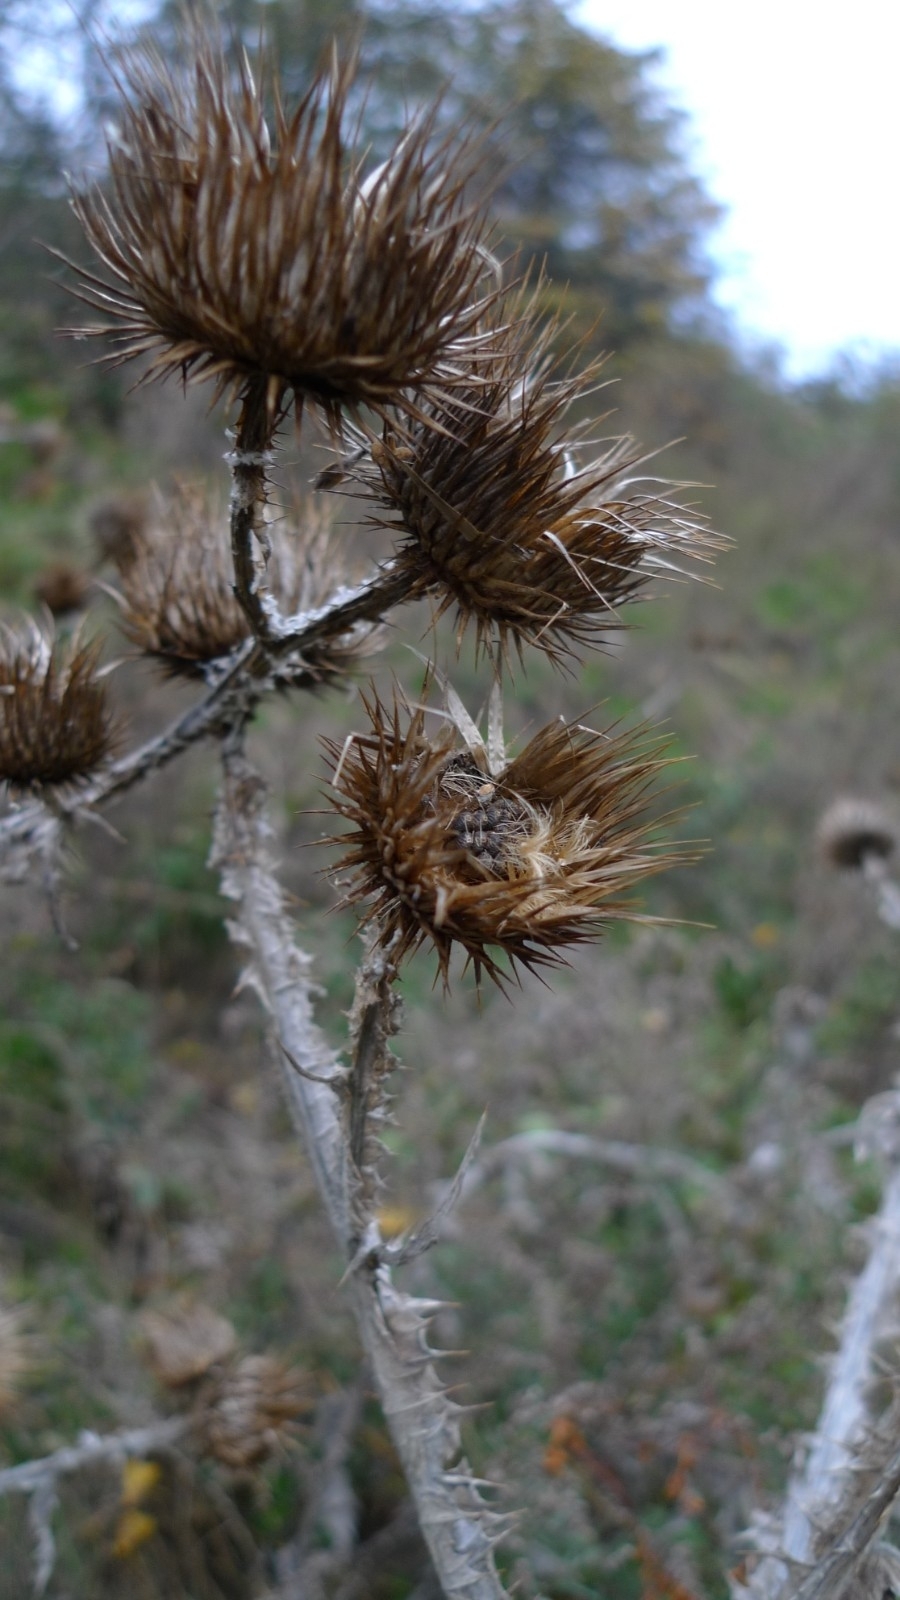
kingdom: Plantae
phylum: Tracheophyta
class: Magnoliopsida
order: Asterales
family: Asteraceae
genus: Onopordum
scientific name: Onopordum acanthium
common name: Scotch thistle
